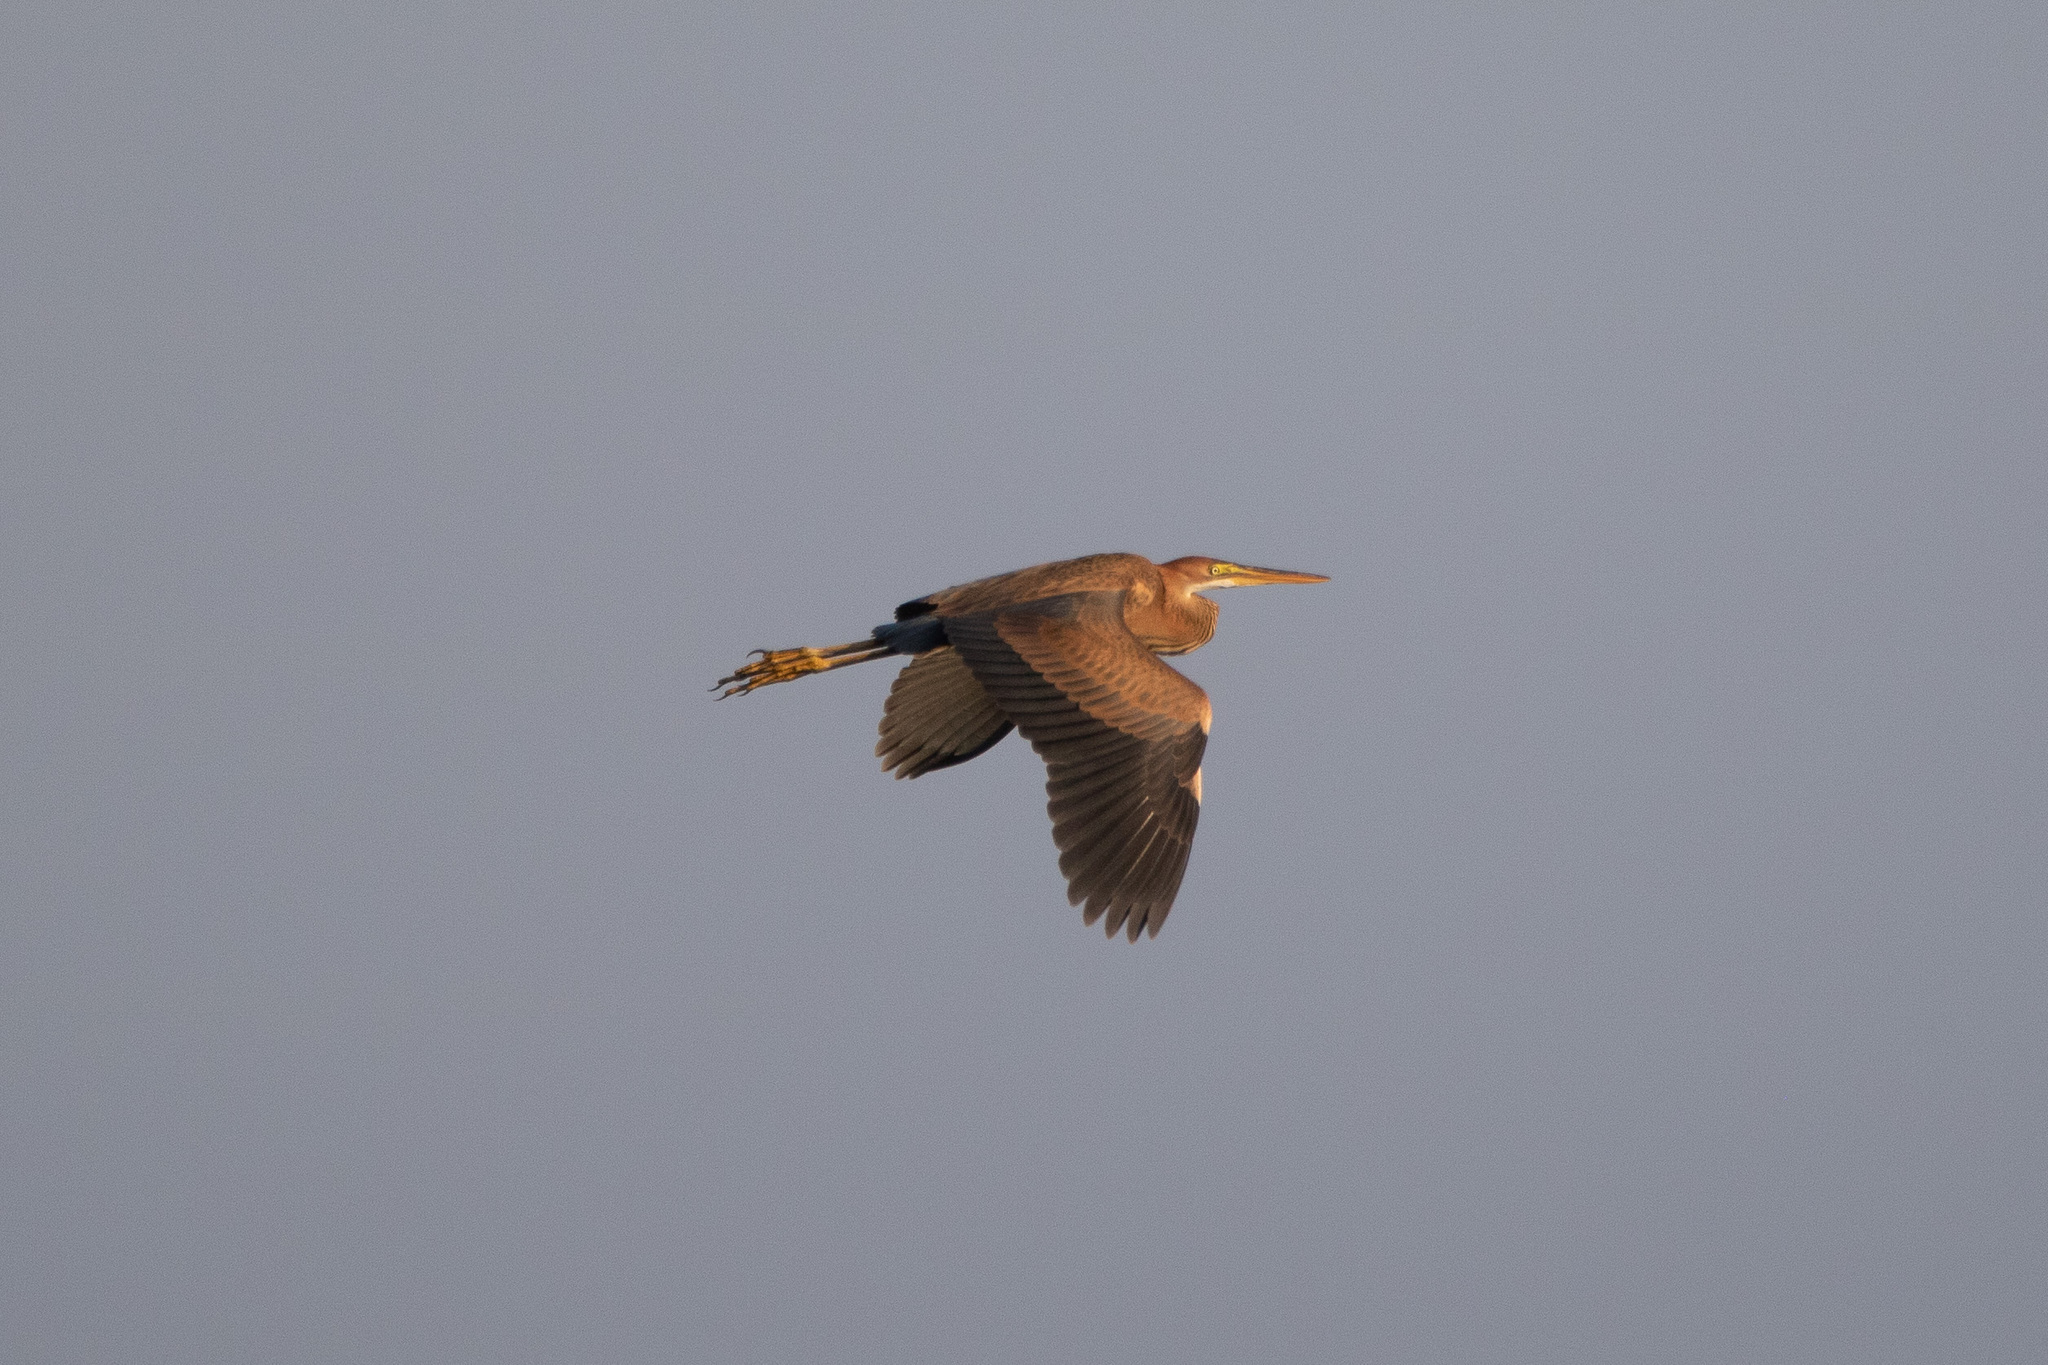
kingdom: Animalia
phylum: Chordata
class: Aves
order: Pelecaniformes
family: Ardeidae
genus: Ardea
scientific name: Ardea purpurea
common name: Purple heron
